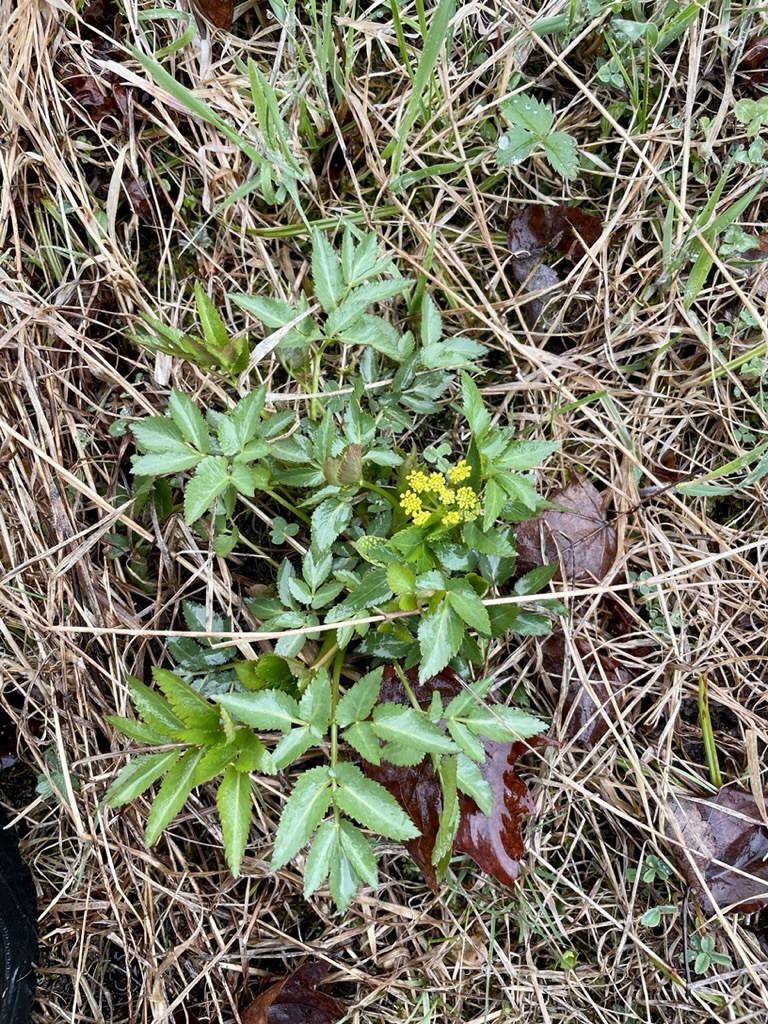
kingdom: Plantae
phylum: Tracheophyta
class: Magnoliopsida
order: Apiales
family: Apiaceae
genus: Zizia
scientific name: Zizia aurea
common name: Golden alexanders
